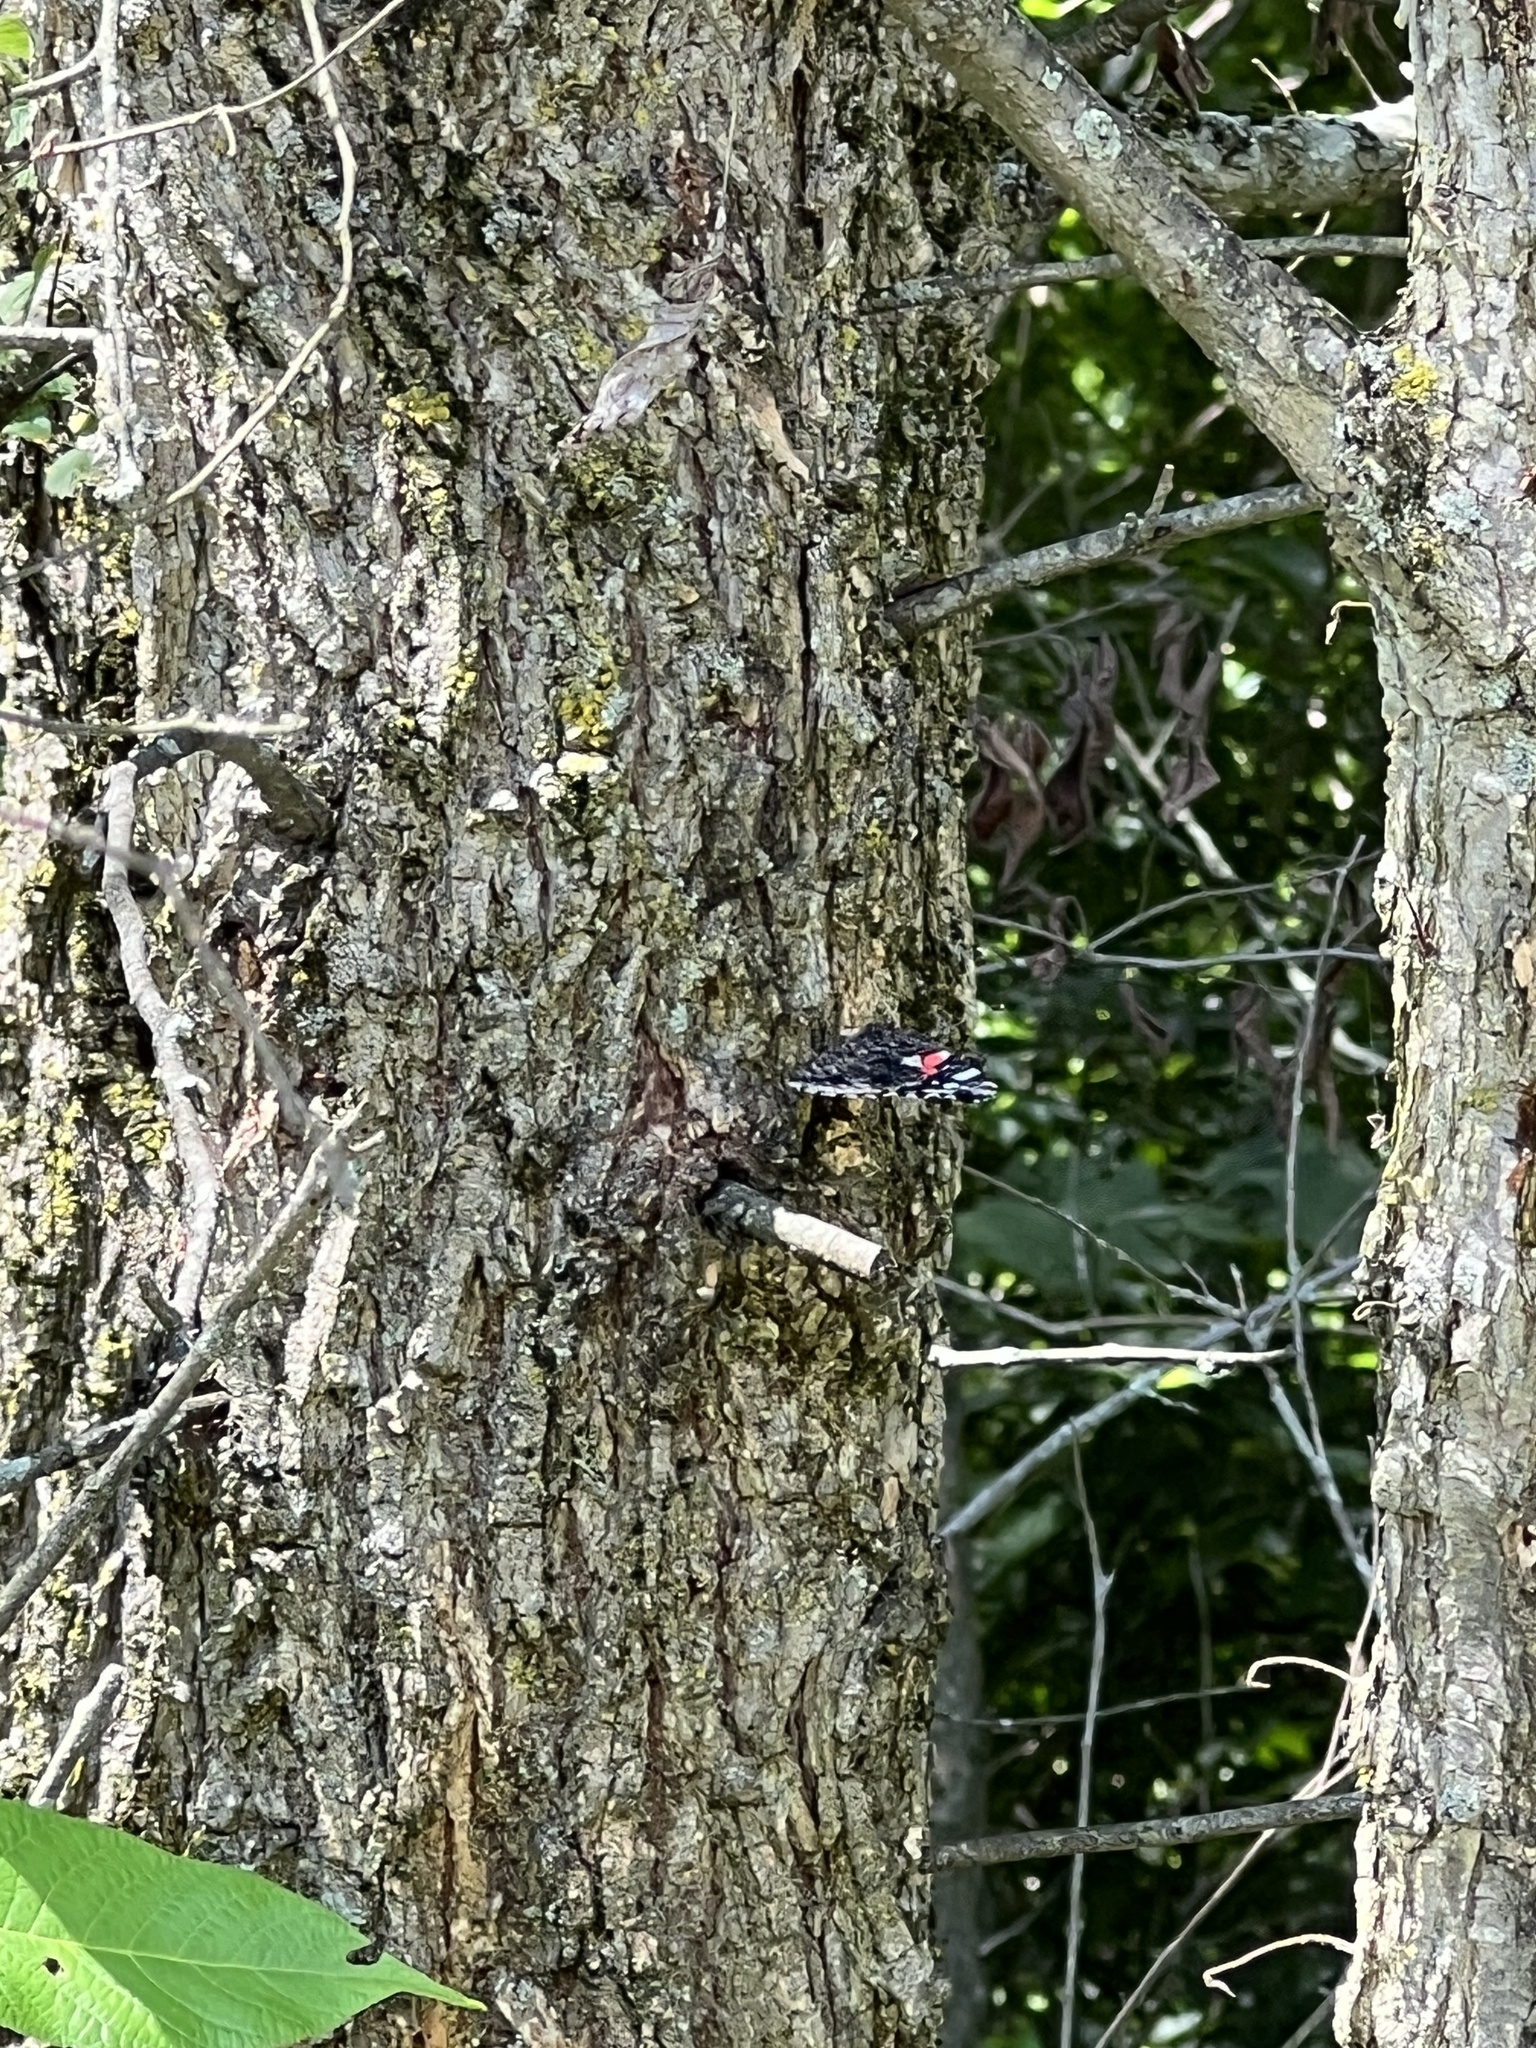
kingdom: Animalia
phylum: Arthropoda
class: Insecta
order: Lepidoptera
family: Nymphalidae
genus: Vanessa
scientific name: Vanessa atalanta
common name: Red admiral
